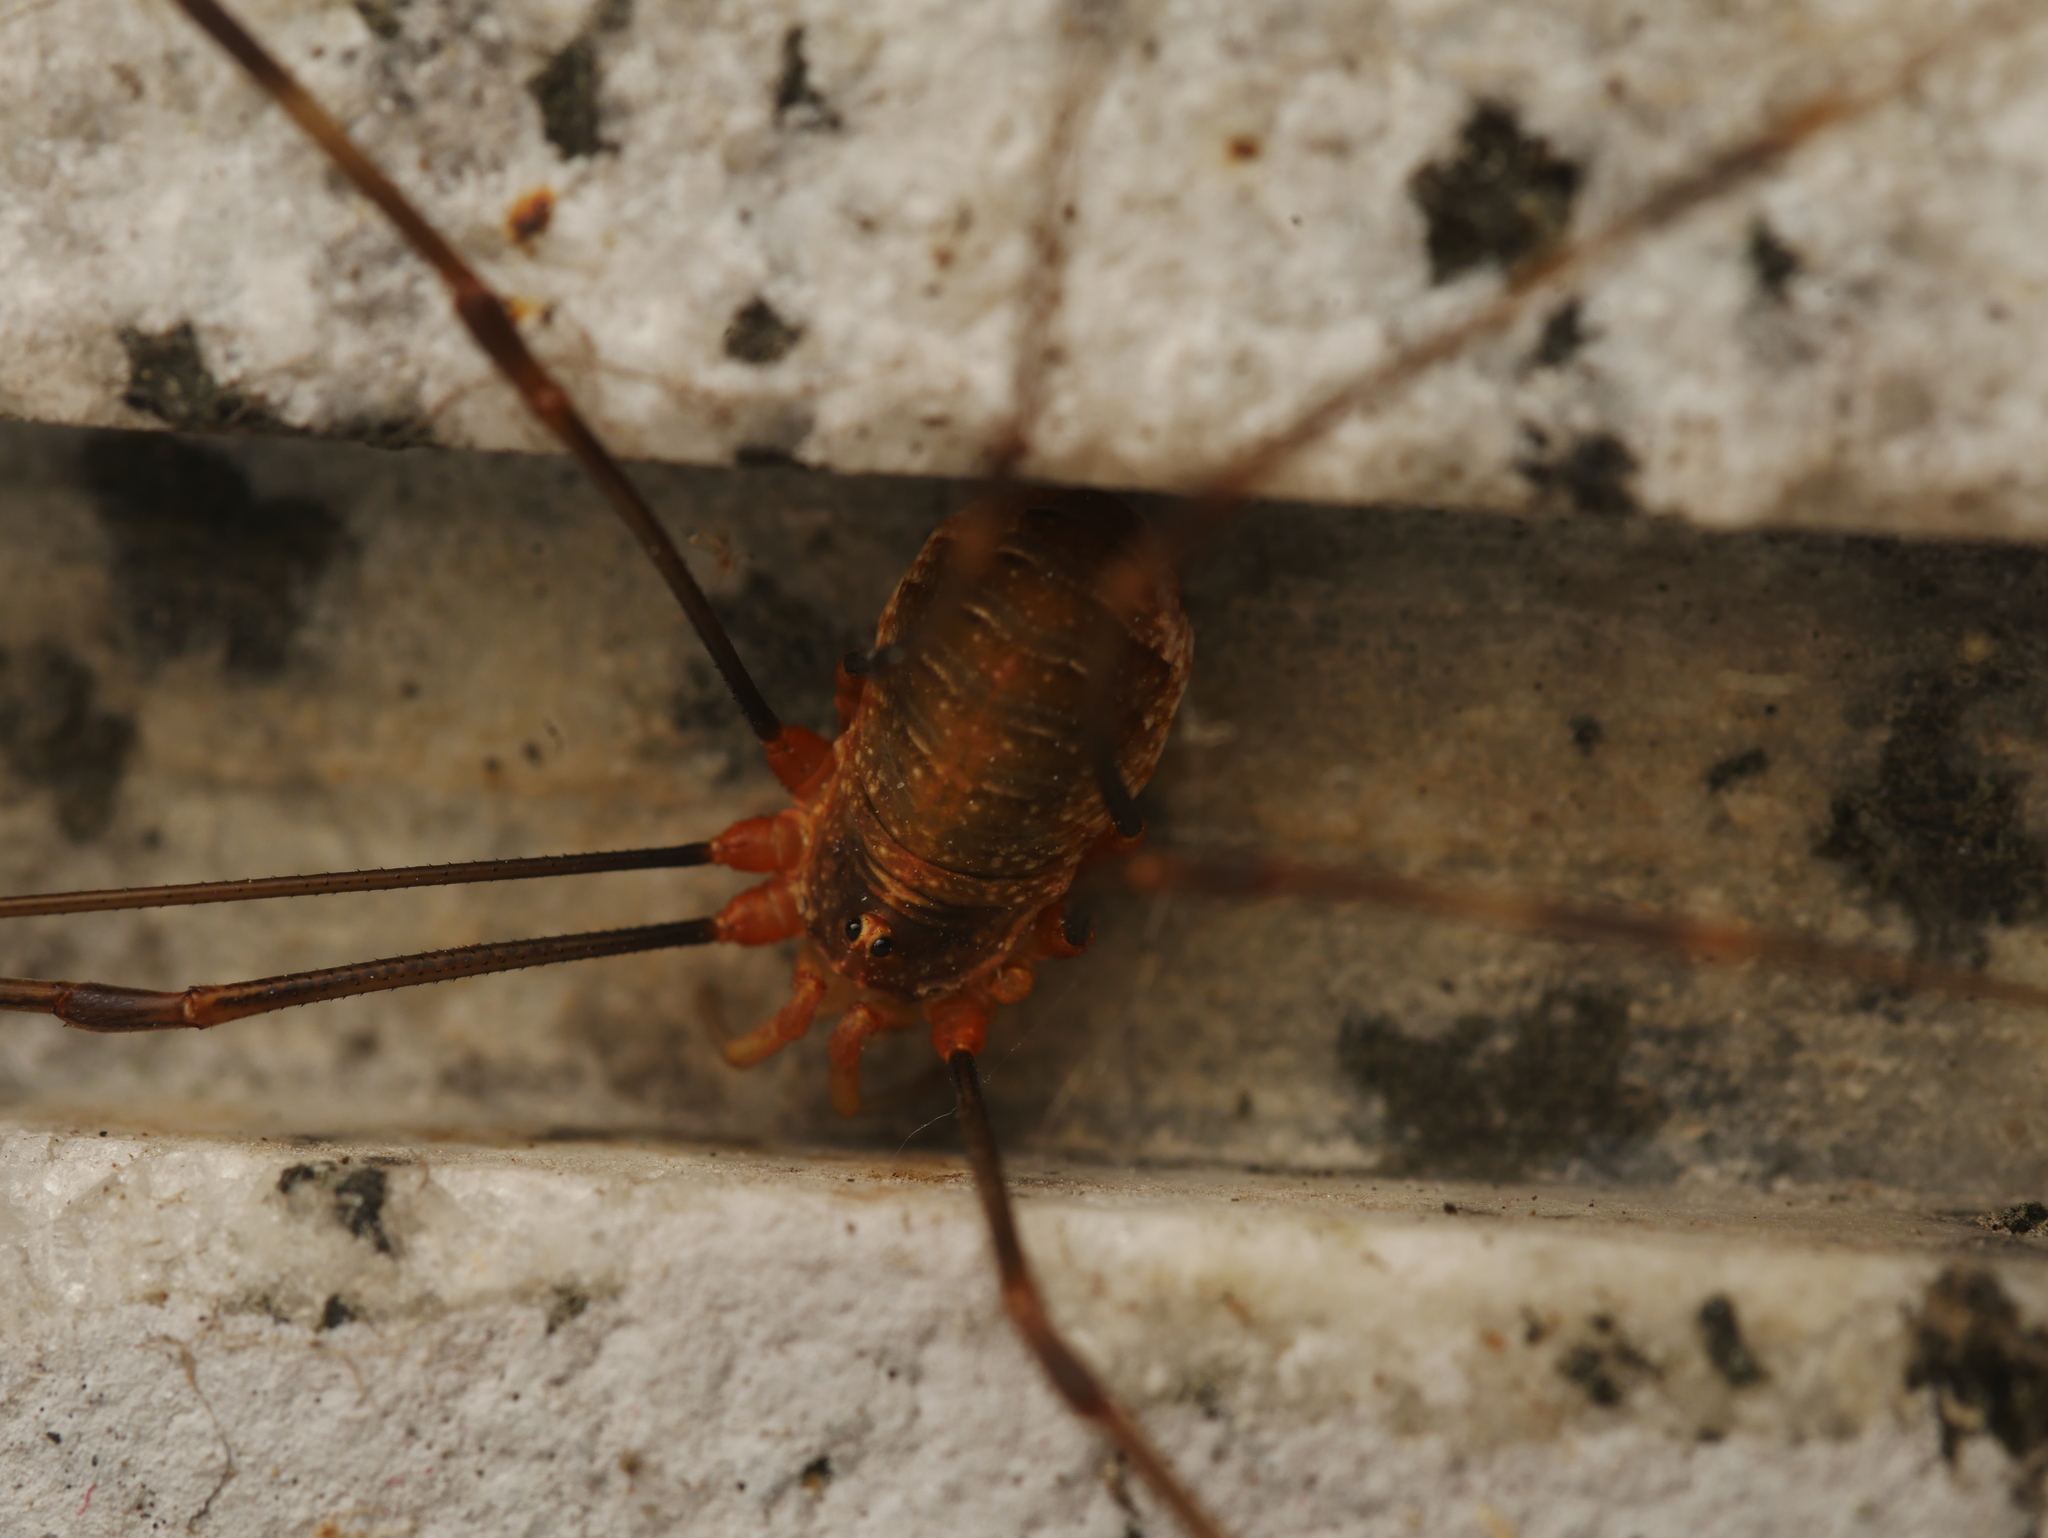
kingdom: Animalia
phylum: Arthropoda
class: Arachnida
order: Opiliones
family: Phalangiidae
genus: Opilio
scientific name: Opilio canestrinii
